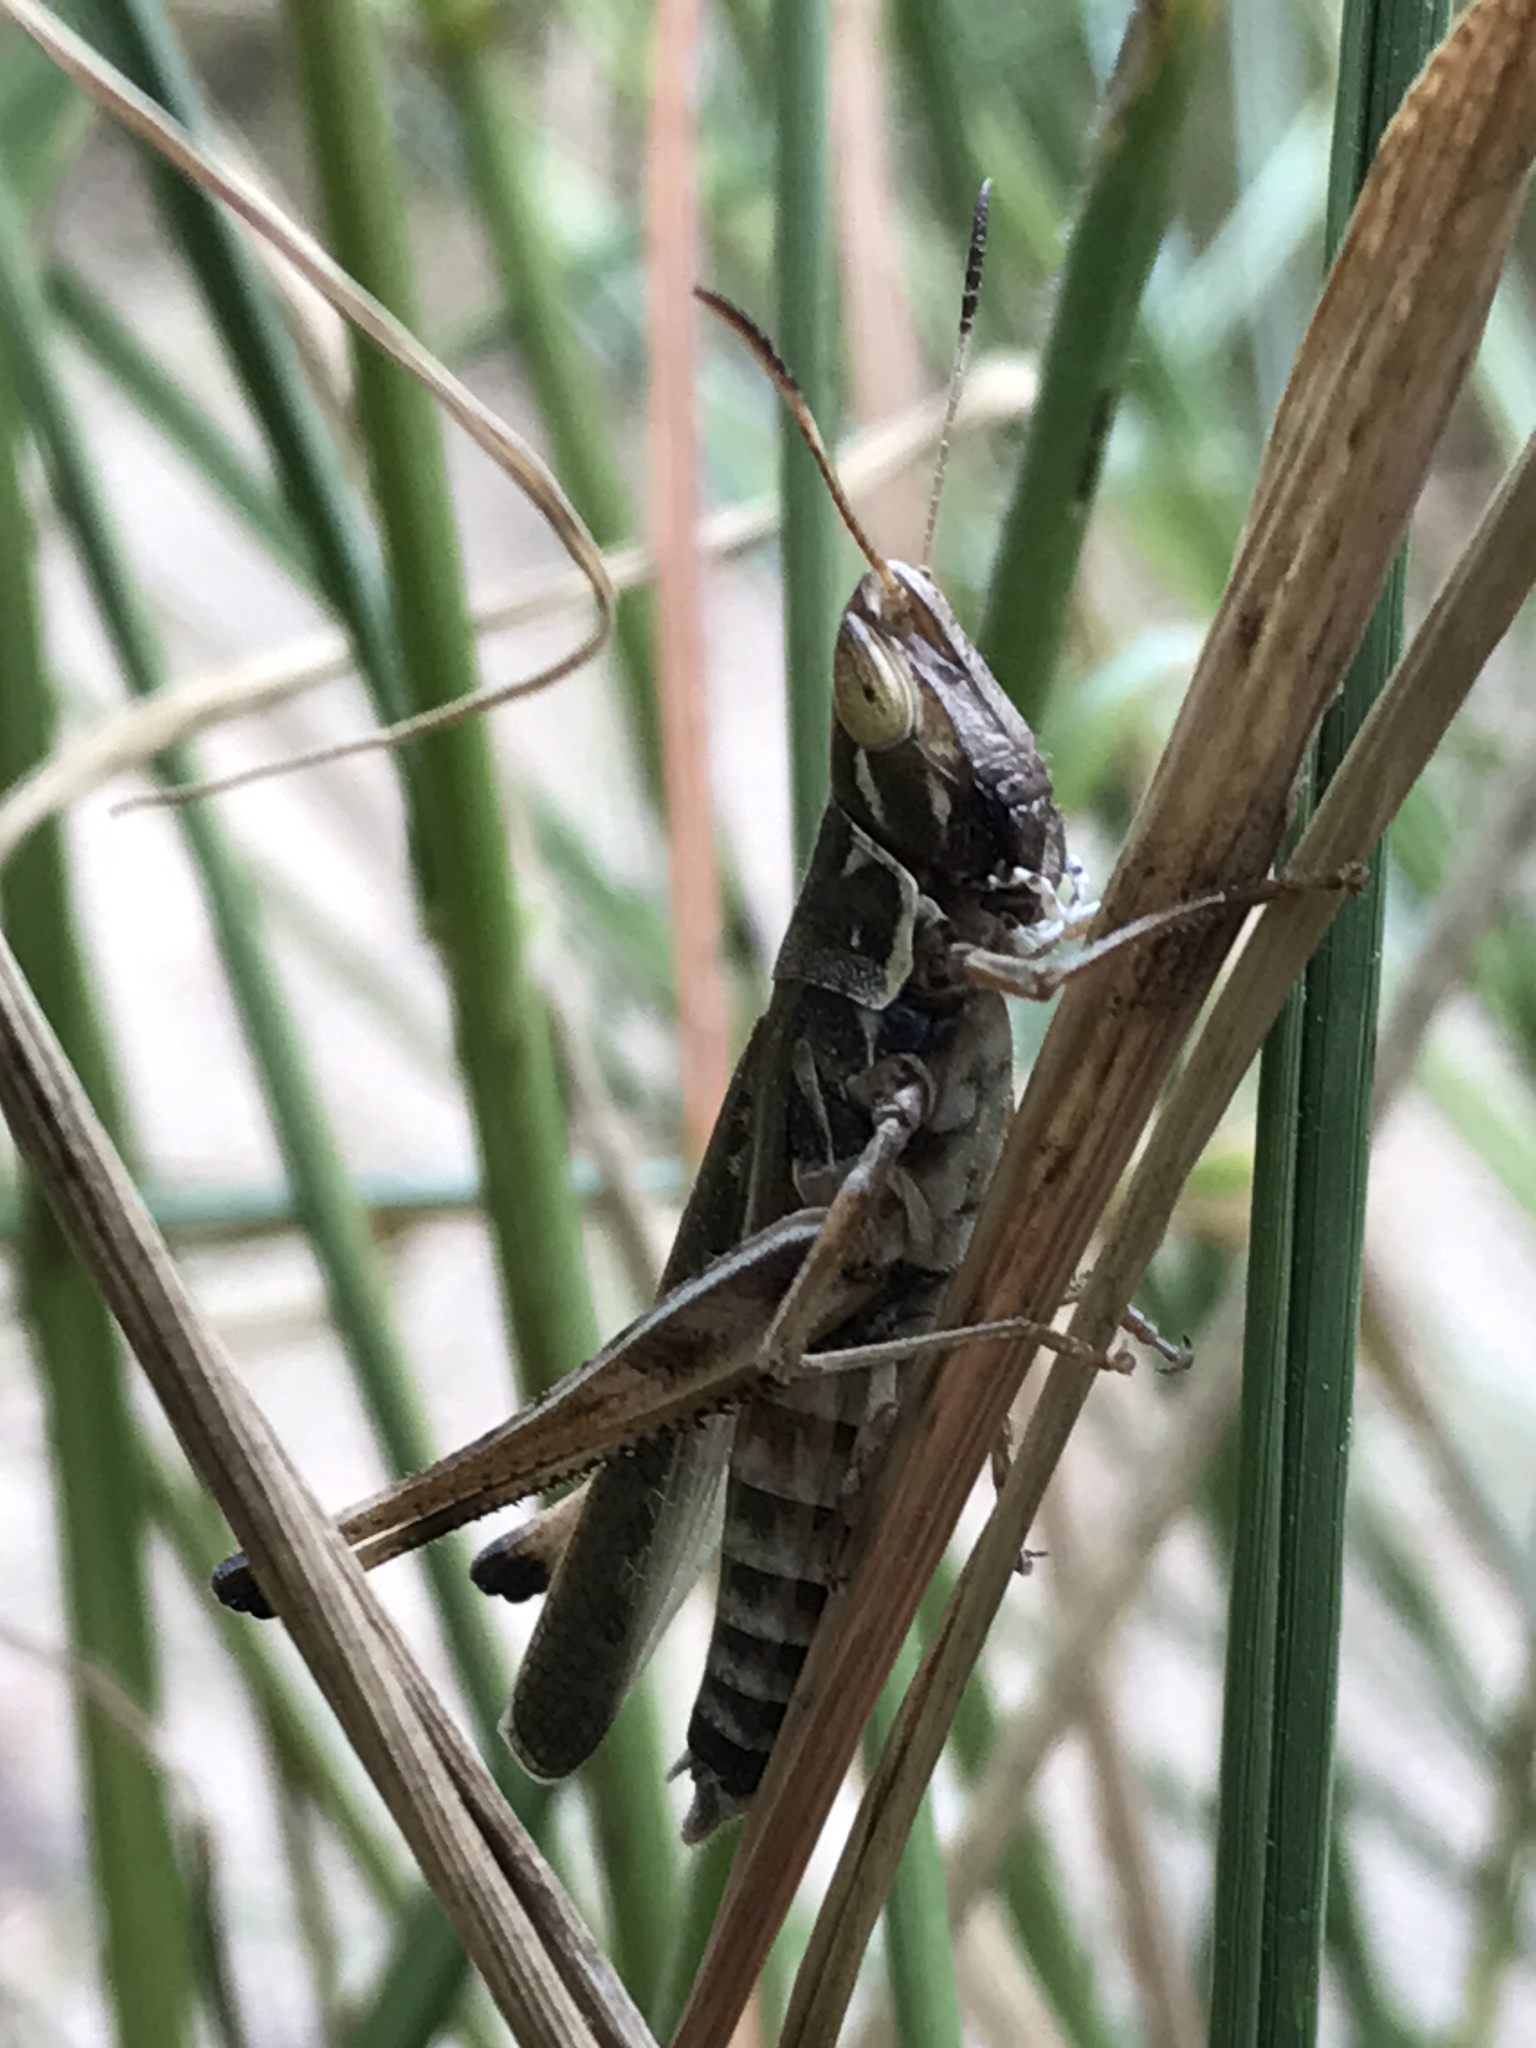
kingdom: Animalia
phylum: Arthropoda
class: Insecta
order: Orthoptera
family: Acrididae
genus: Syrbula
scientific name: Syrbula admirabilis
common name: Handsome grasshopper
